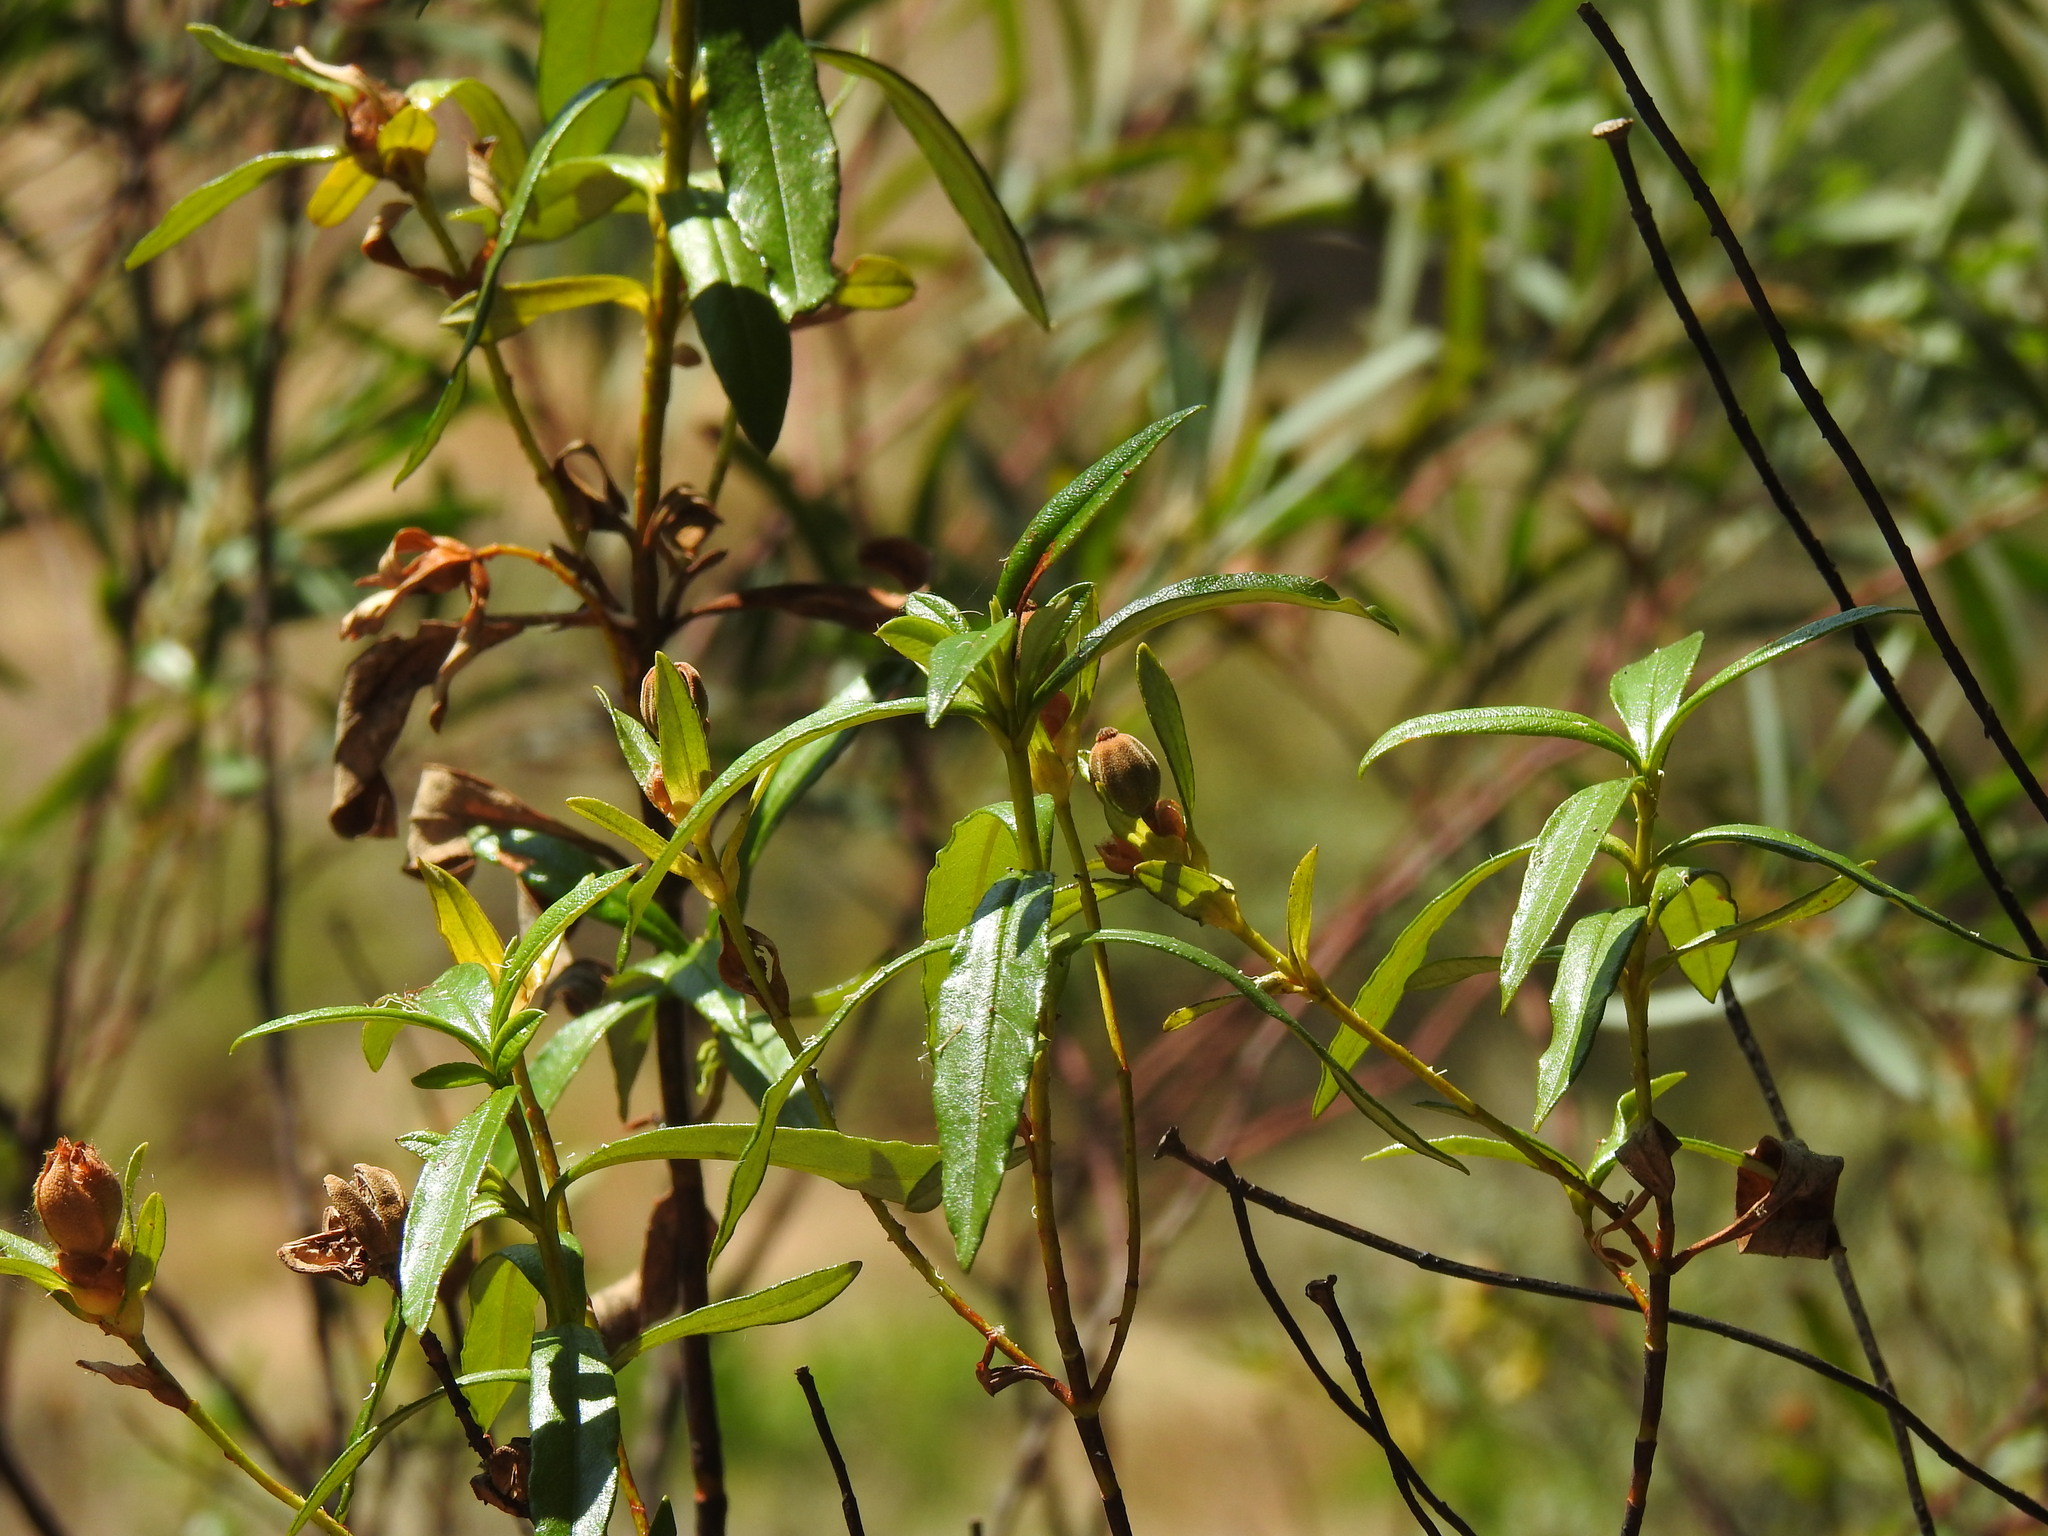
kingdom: Plantae
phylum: Tracheophyta
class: Magnoliopsida
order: Malvales
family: Cistaceae
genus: Cistus
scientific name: Cistus ladanifer
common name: Common gum cistus
